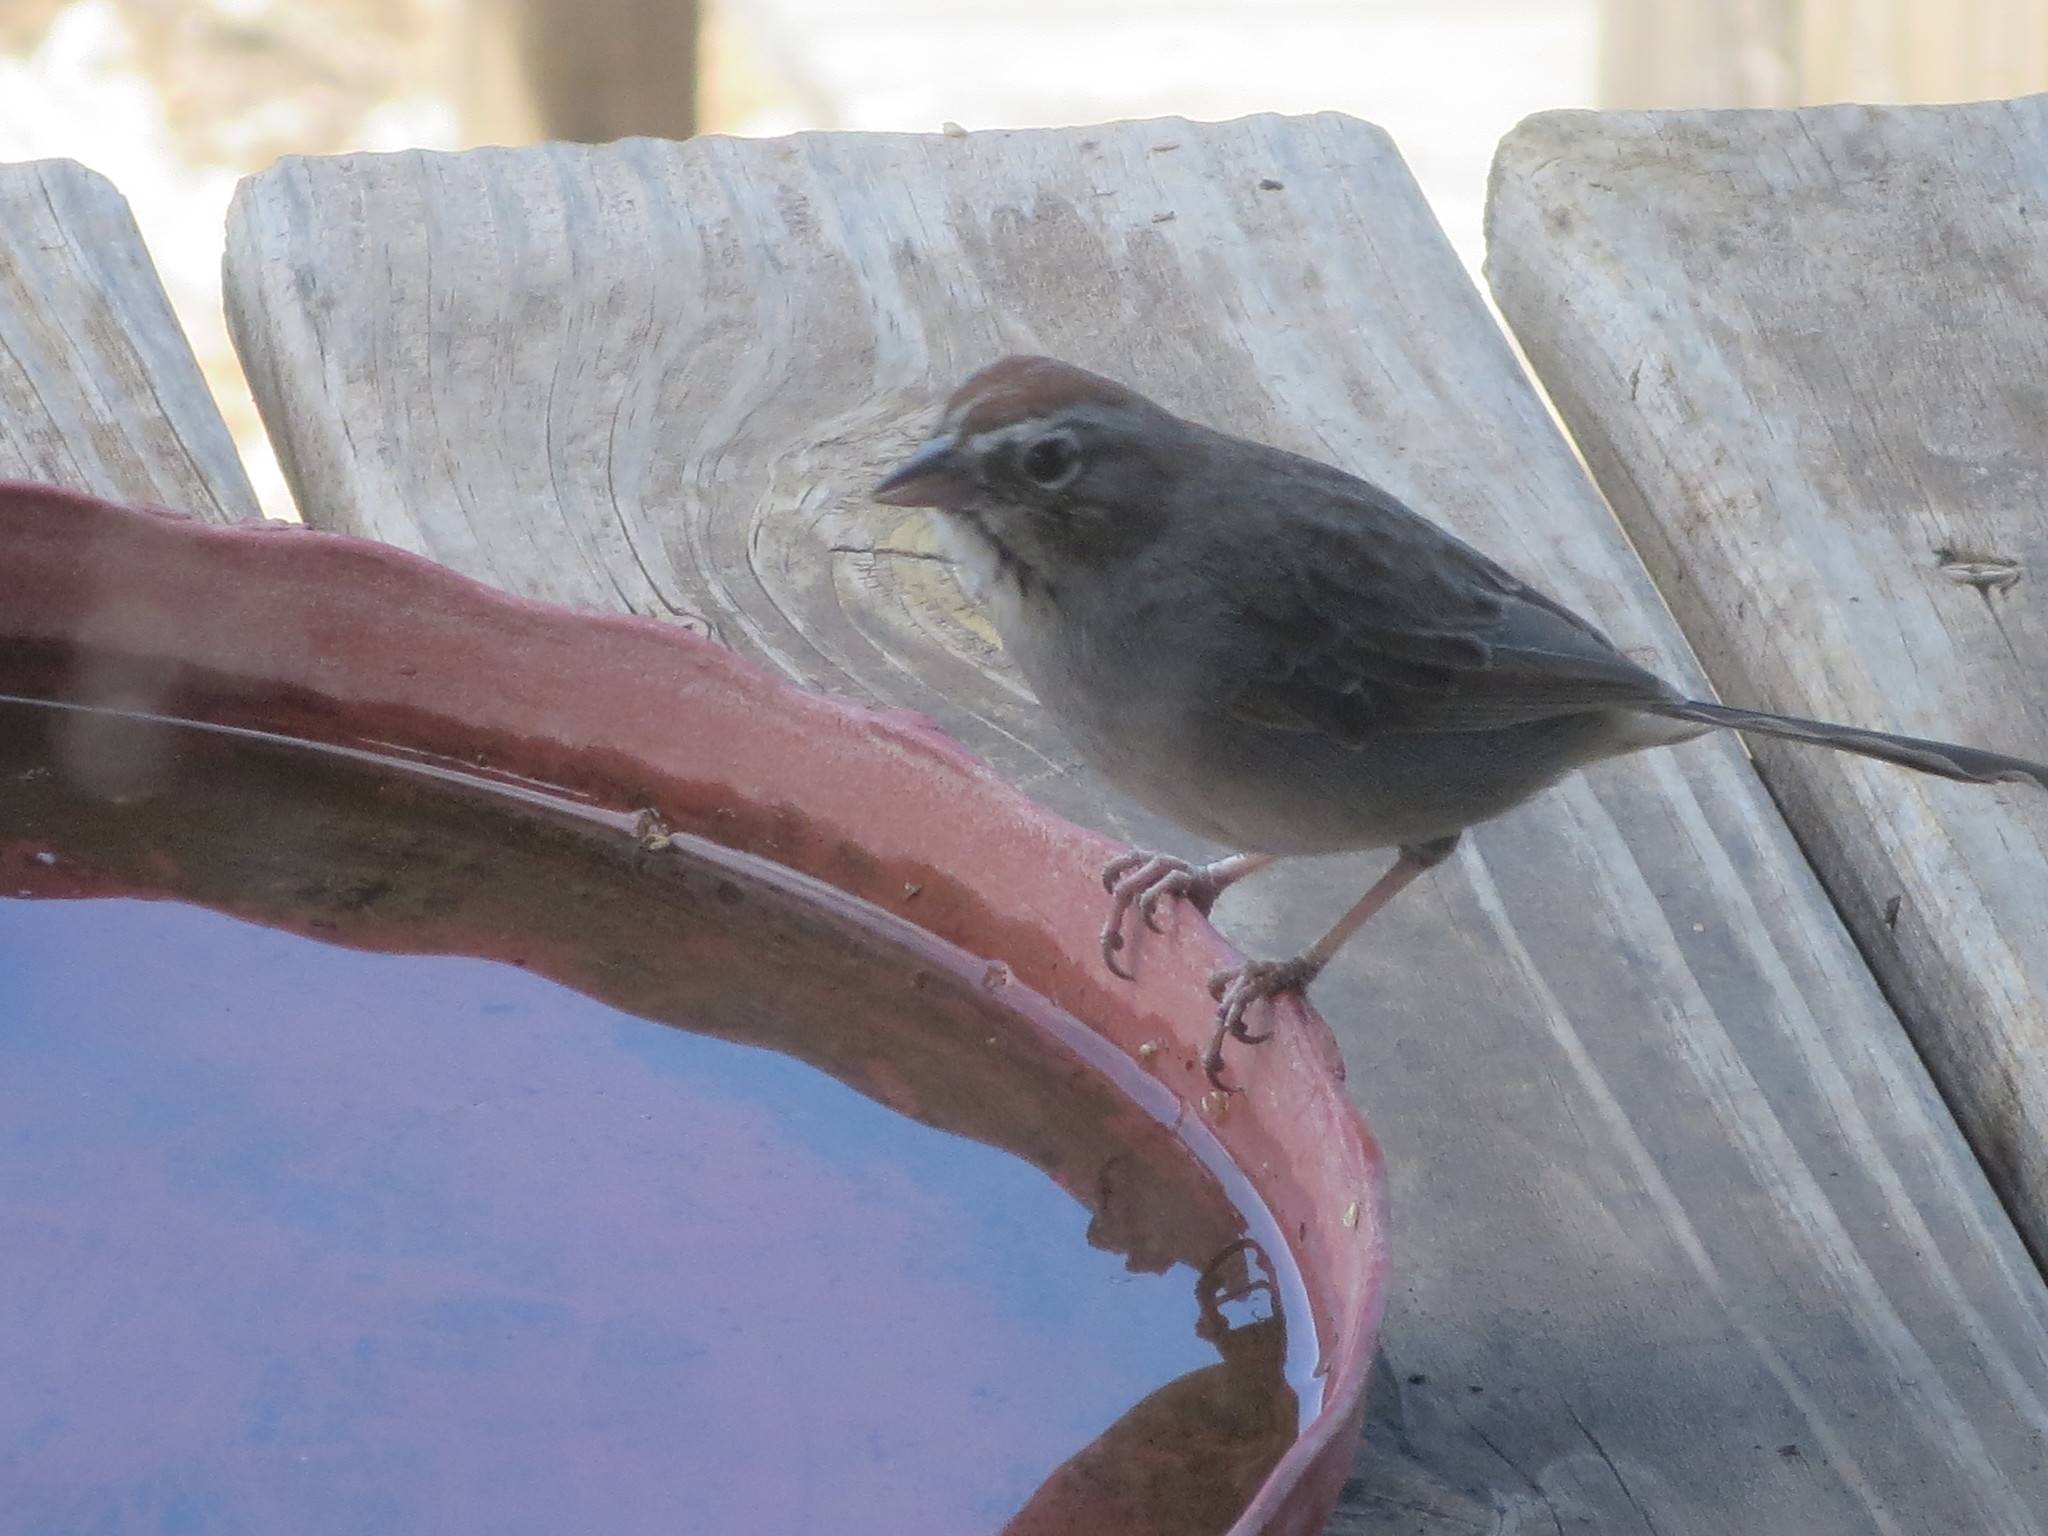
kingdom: Animalia
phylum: Chordata
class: Aves
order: Passeriformes
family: Passerellidae
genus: Aimophila
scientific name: Aimophila ruficeps
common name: Rufous-crowned sparrow
